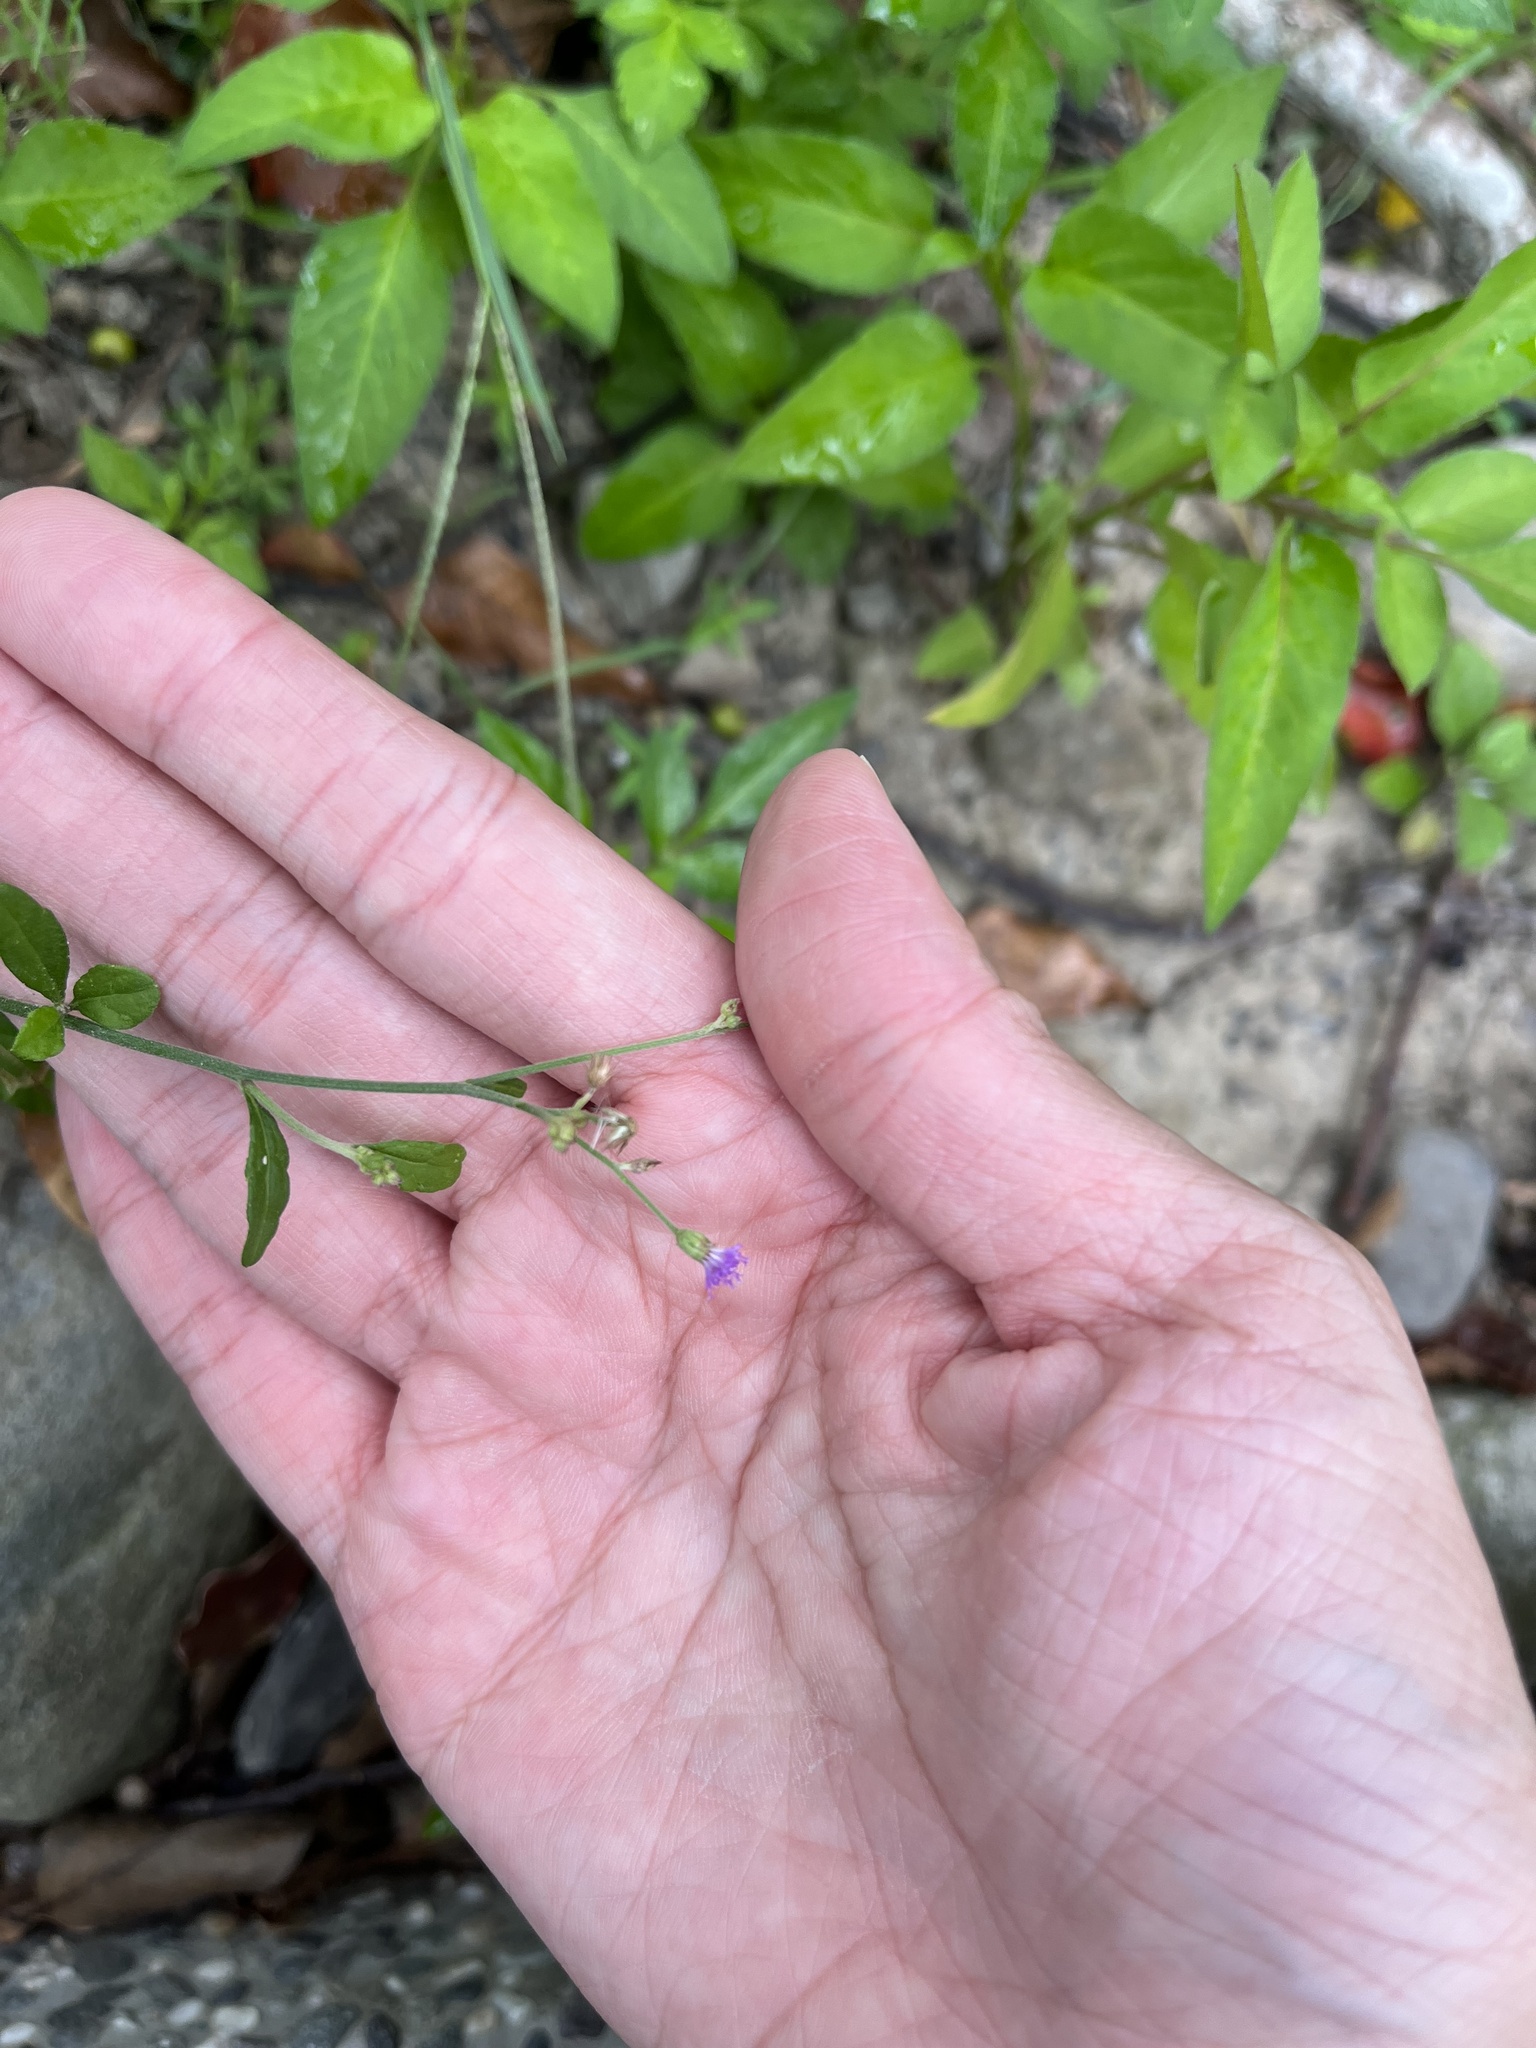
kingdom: Plantae
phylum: Tracheophyta
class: Magnoliopsida
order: Asterales
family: Asteraceae
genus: Cyanthillium
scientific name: Cyanthillium cinereum
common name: Little ironweed
